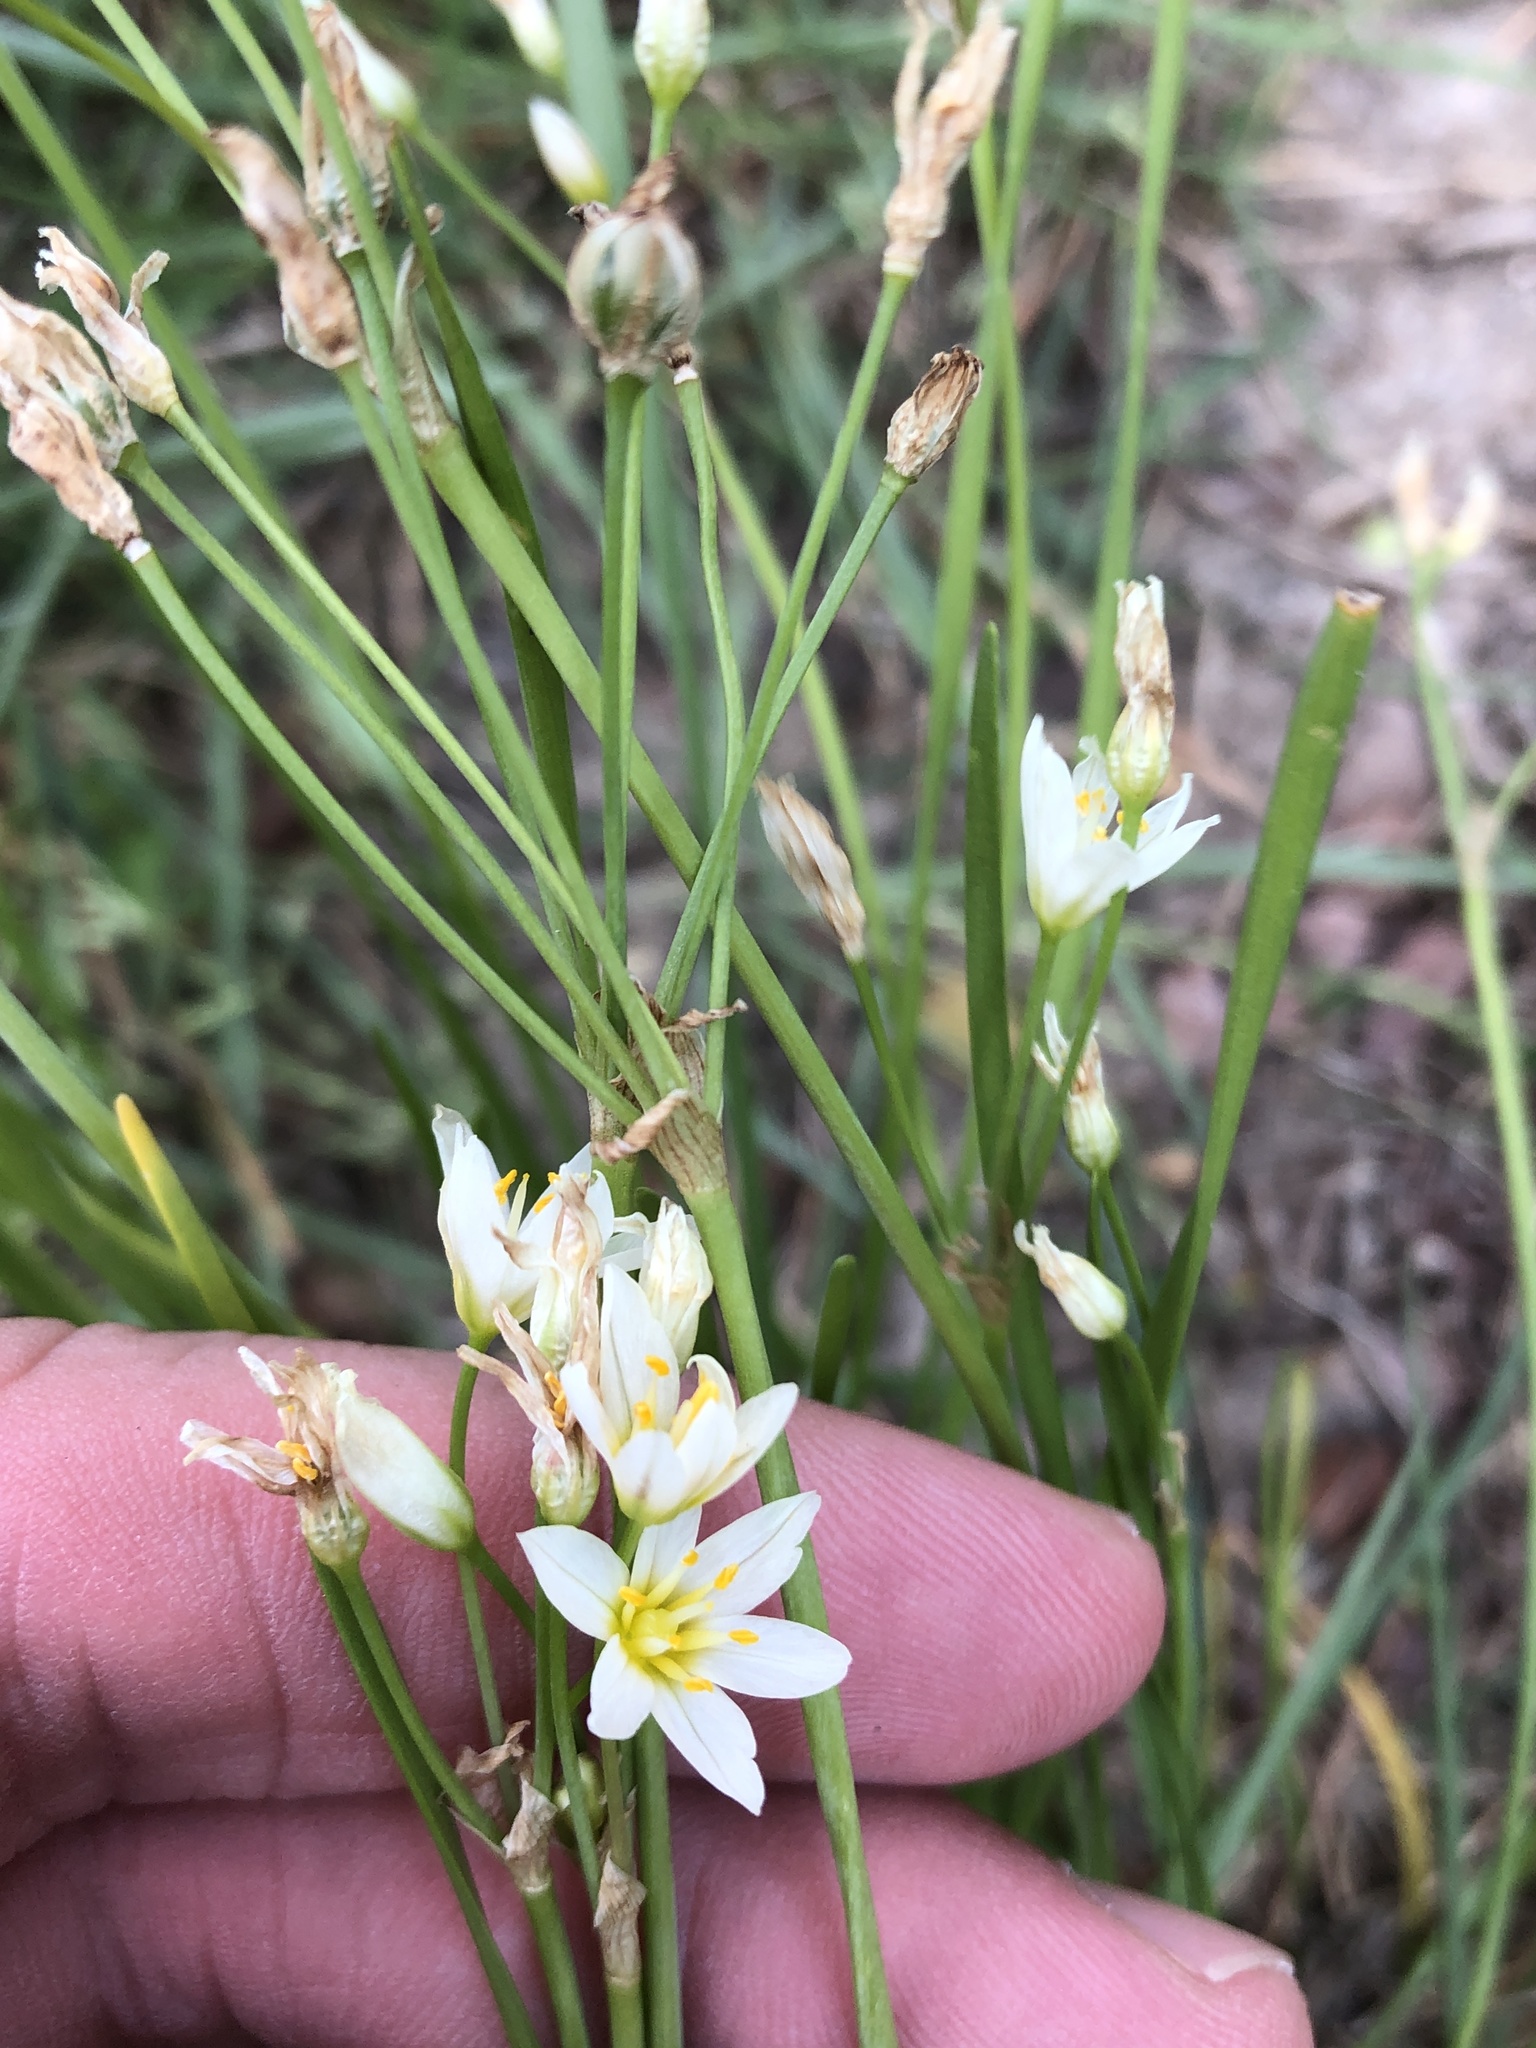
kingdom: Plantae
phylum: Tracheophyta
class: Liliopsida
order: Asparagales
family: Amaryllidaceae
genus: Nothoscordum
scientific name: Nothoscordum bivalve
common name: Crow-poison
